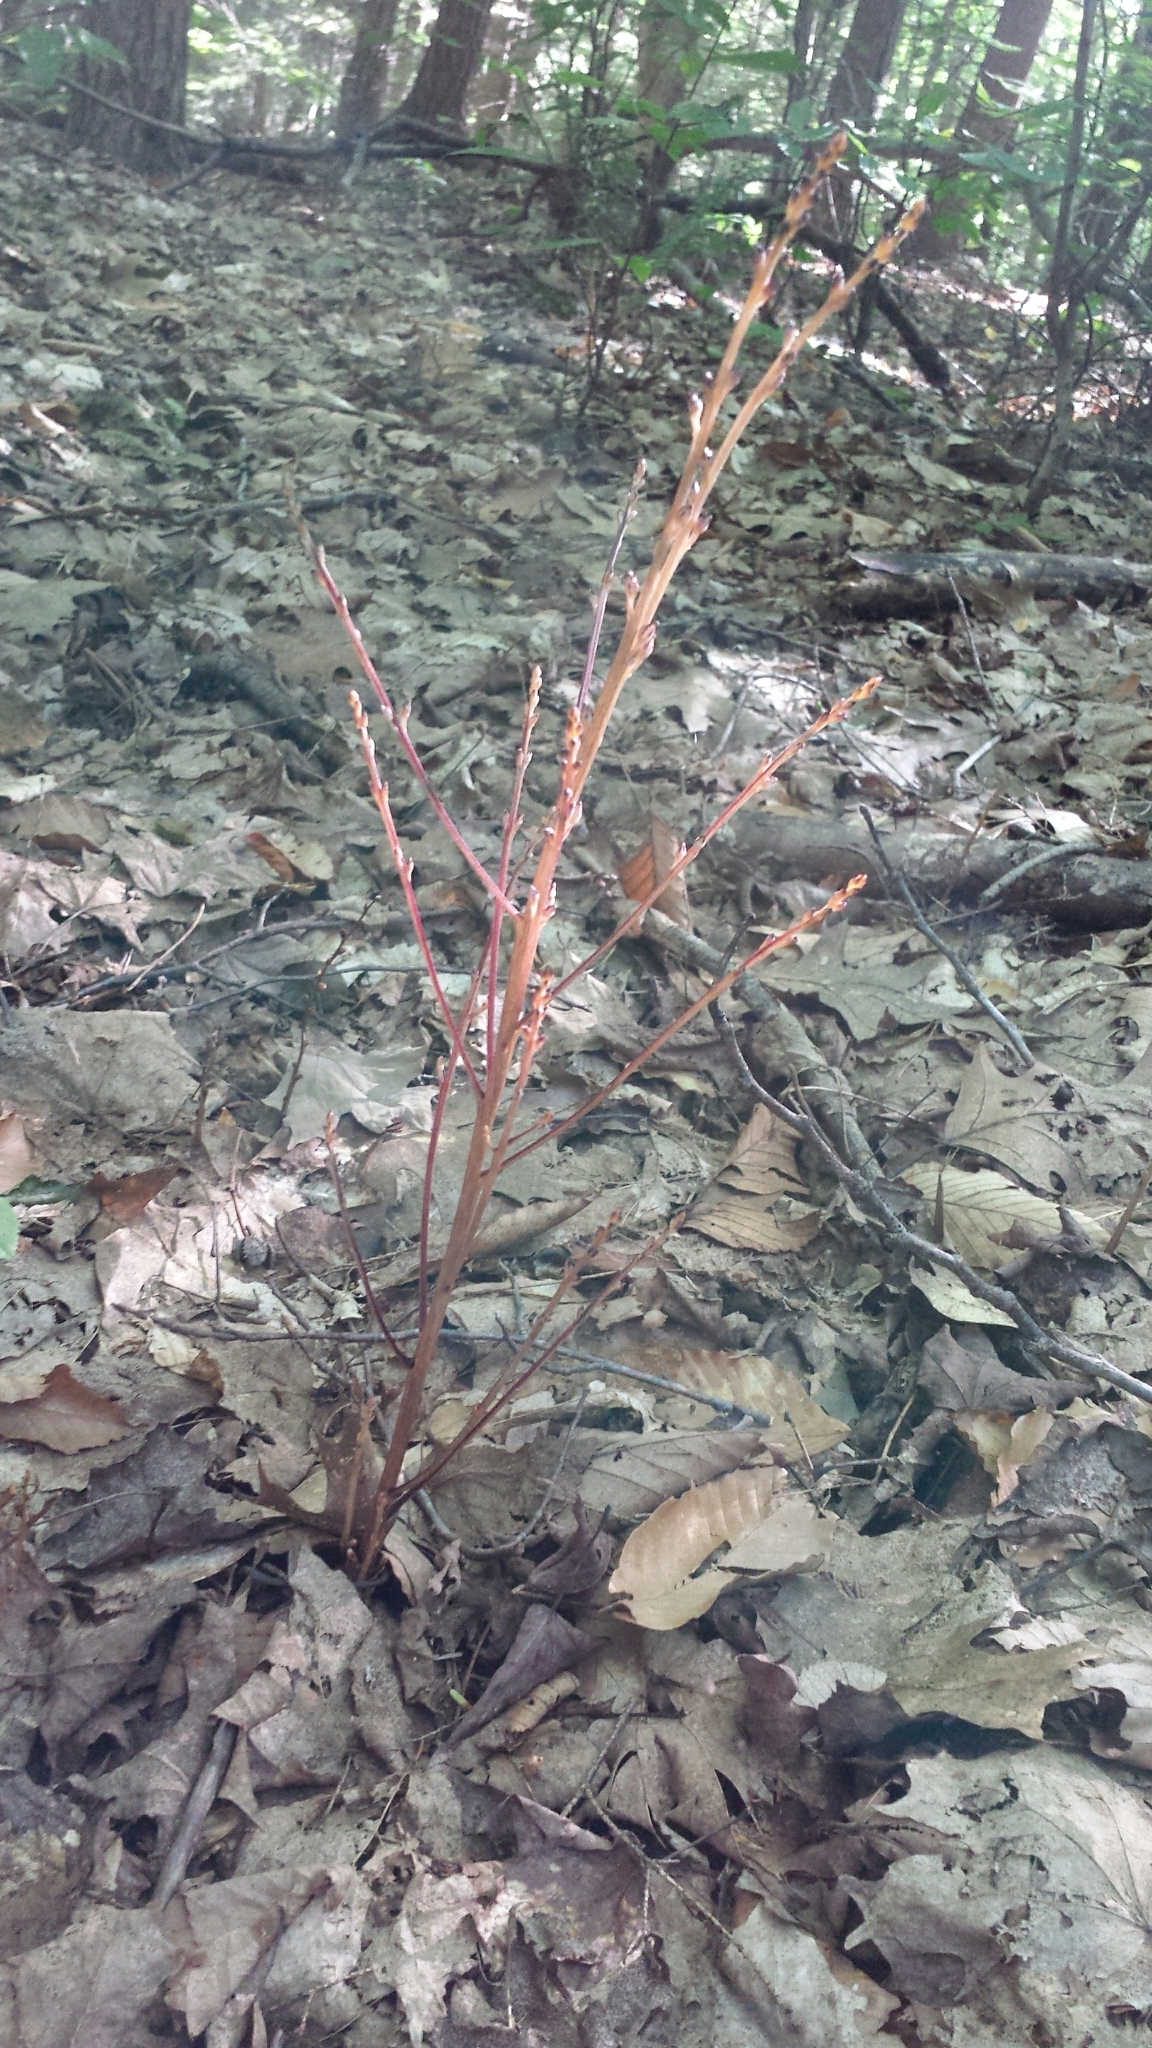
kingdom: Plantae
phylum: Tracheophyta
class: Magnoliopsida
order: Lamiales
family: Orobanchaceae
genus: Epifagus
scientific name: Epifagus virginiana
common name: Beechdrops
